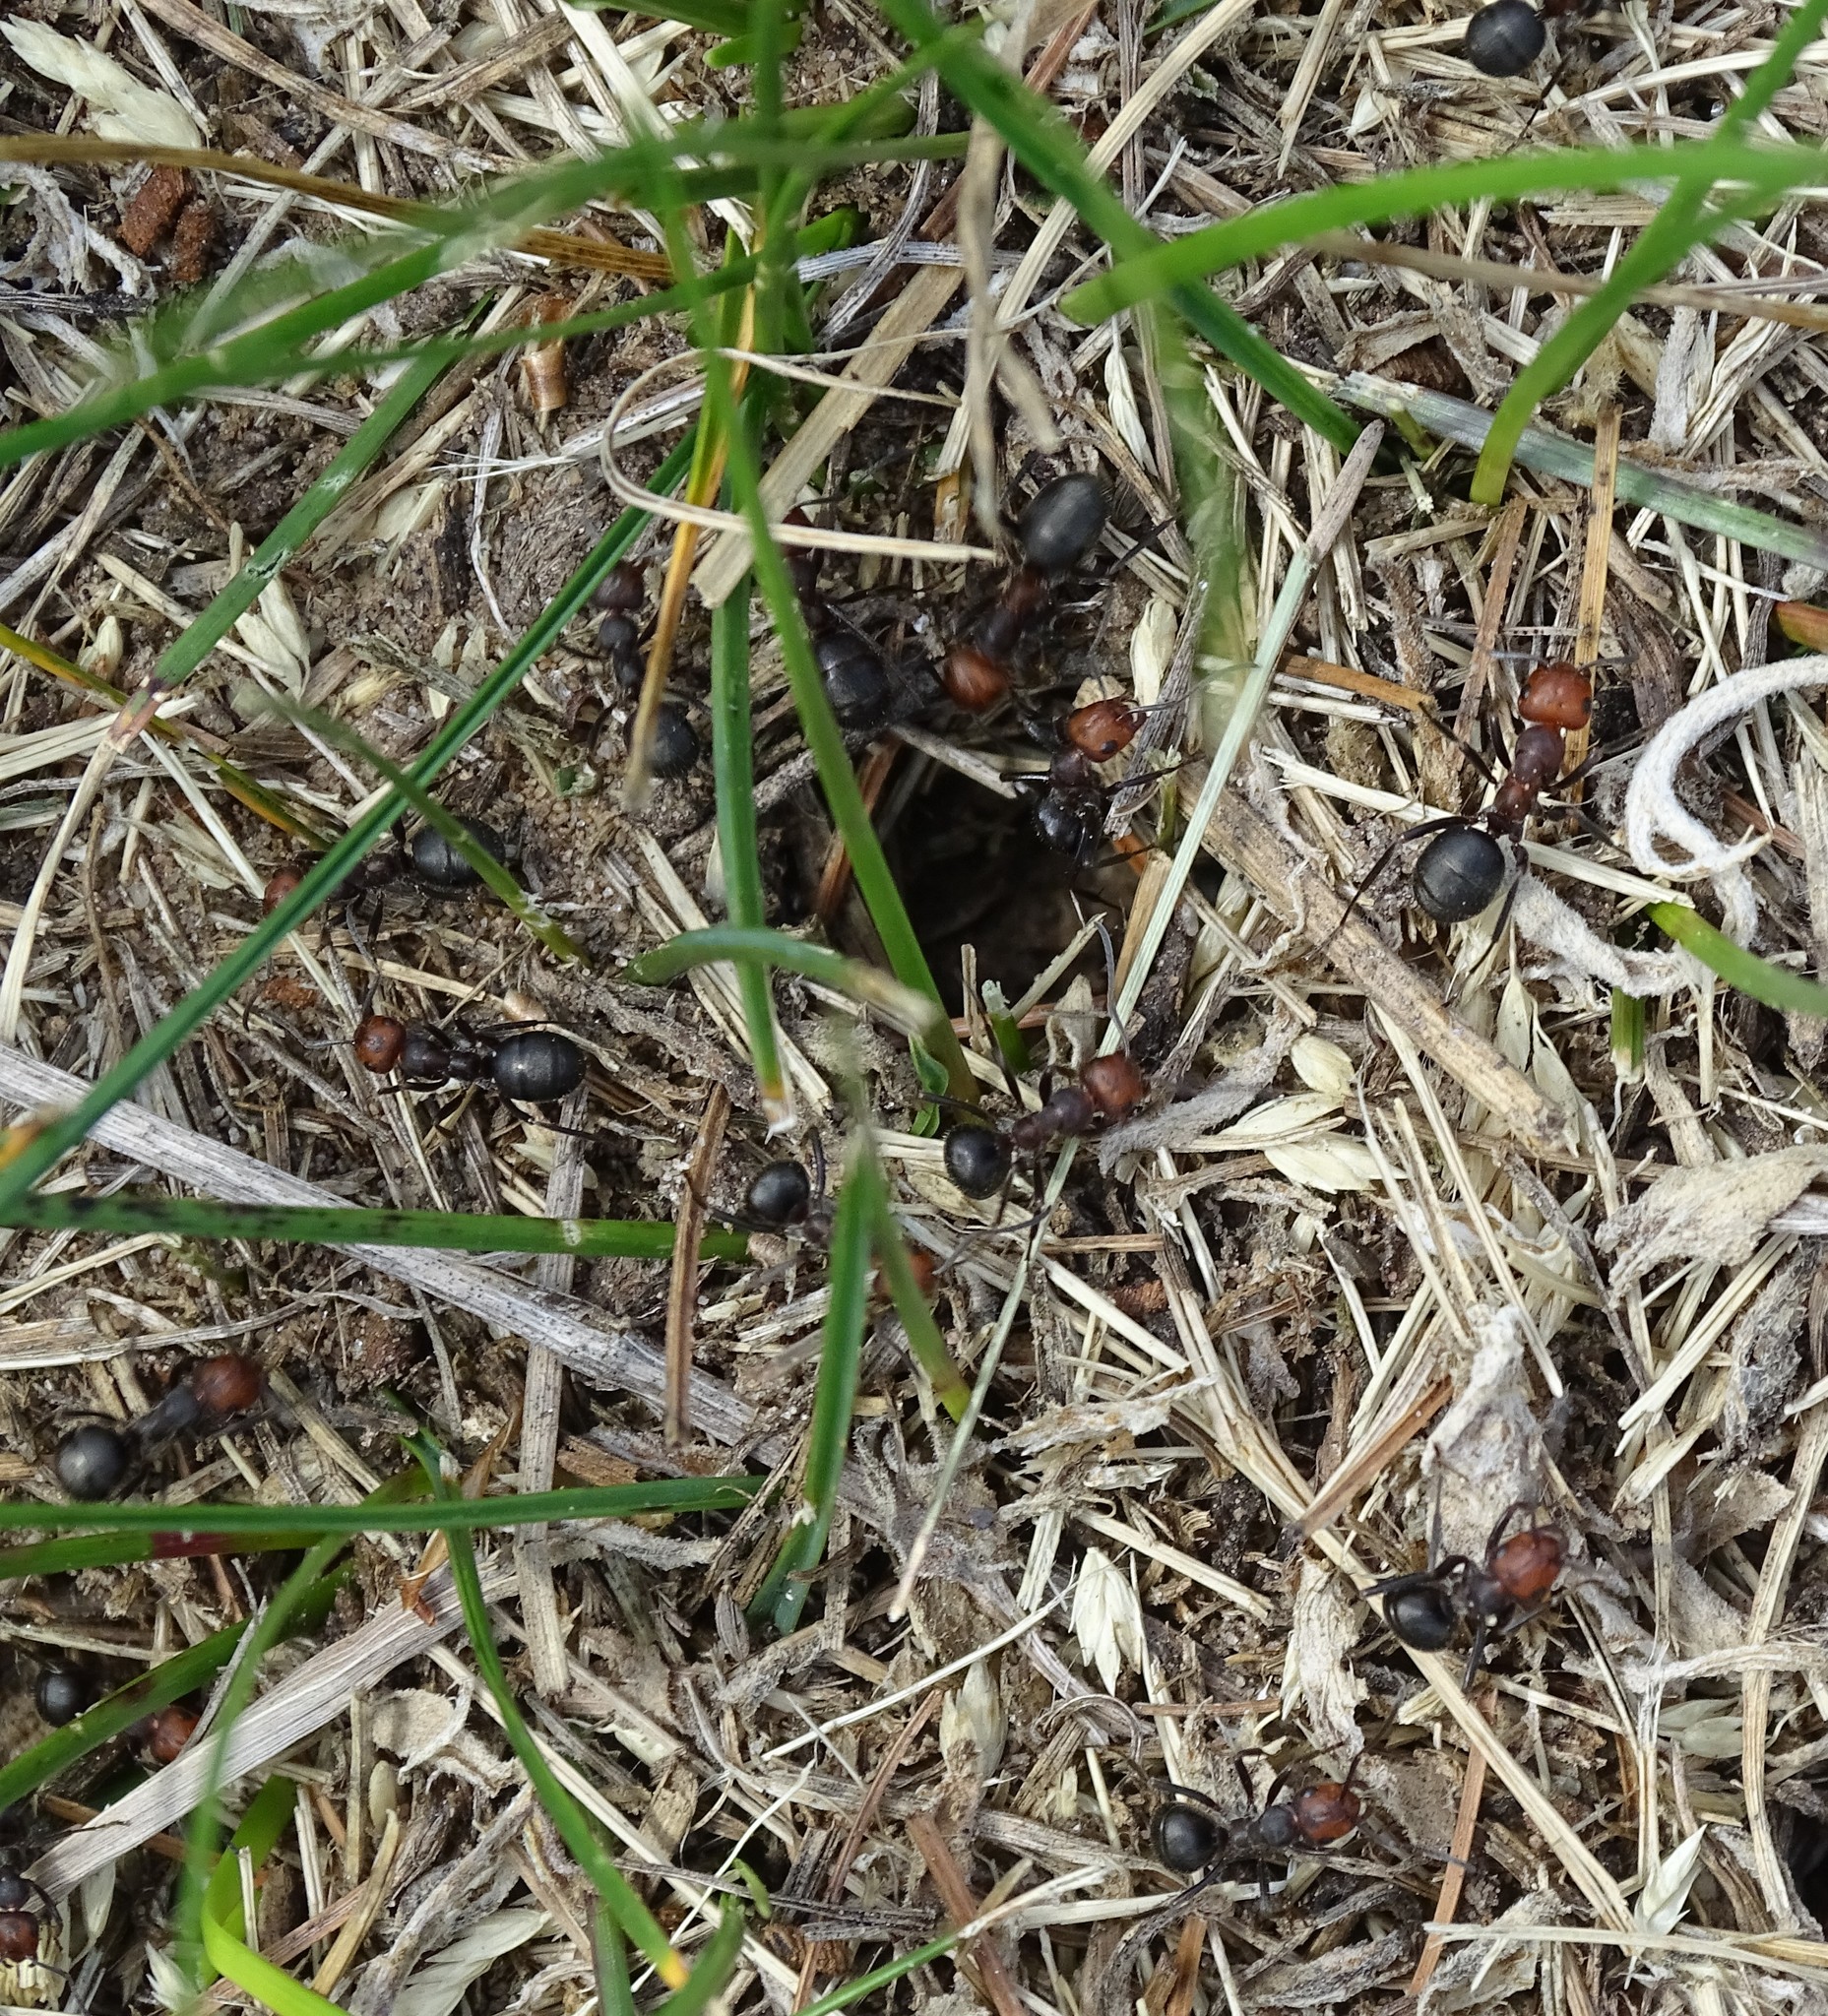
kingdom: Animalia
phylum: Arthropoda
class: Insecta
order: Hymenoptera
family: Formicidae
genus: Formica
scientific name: Formica obscuripes
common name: Western thatching ant
